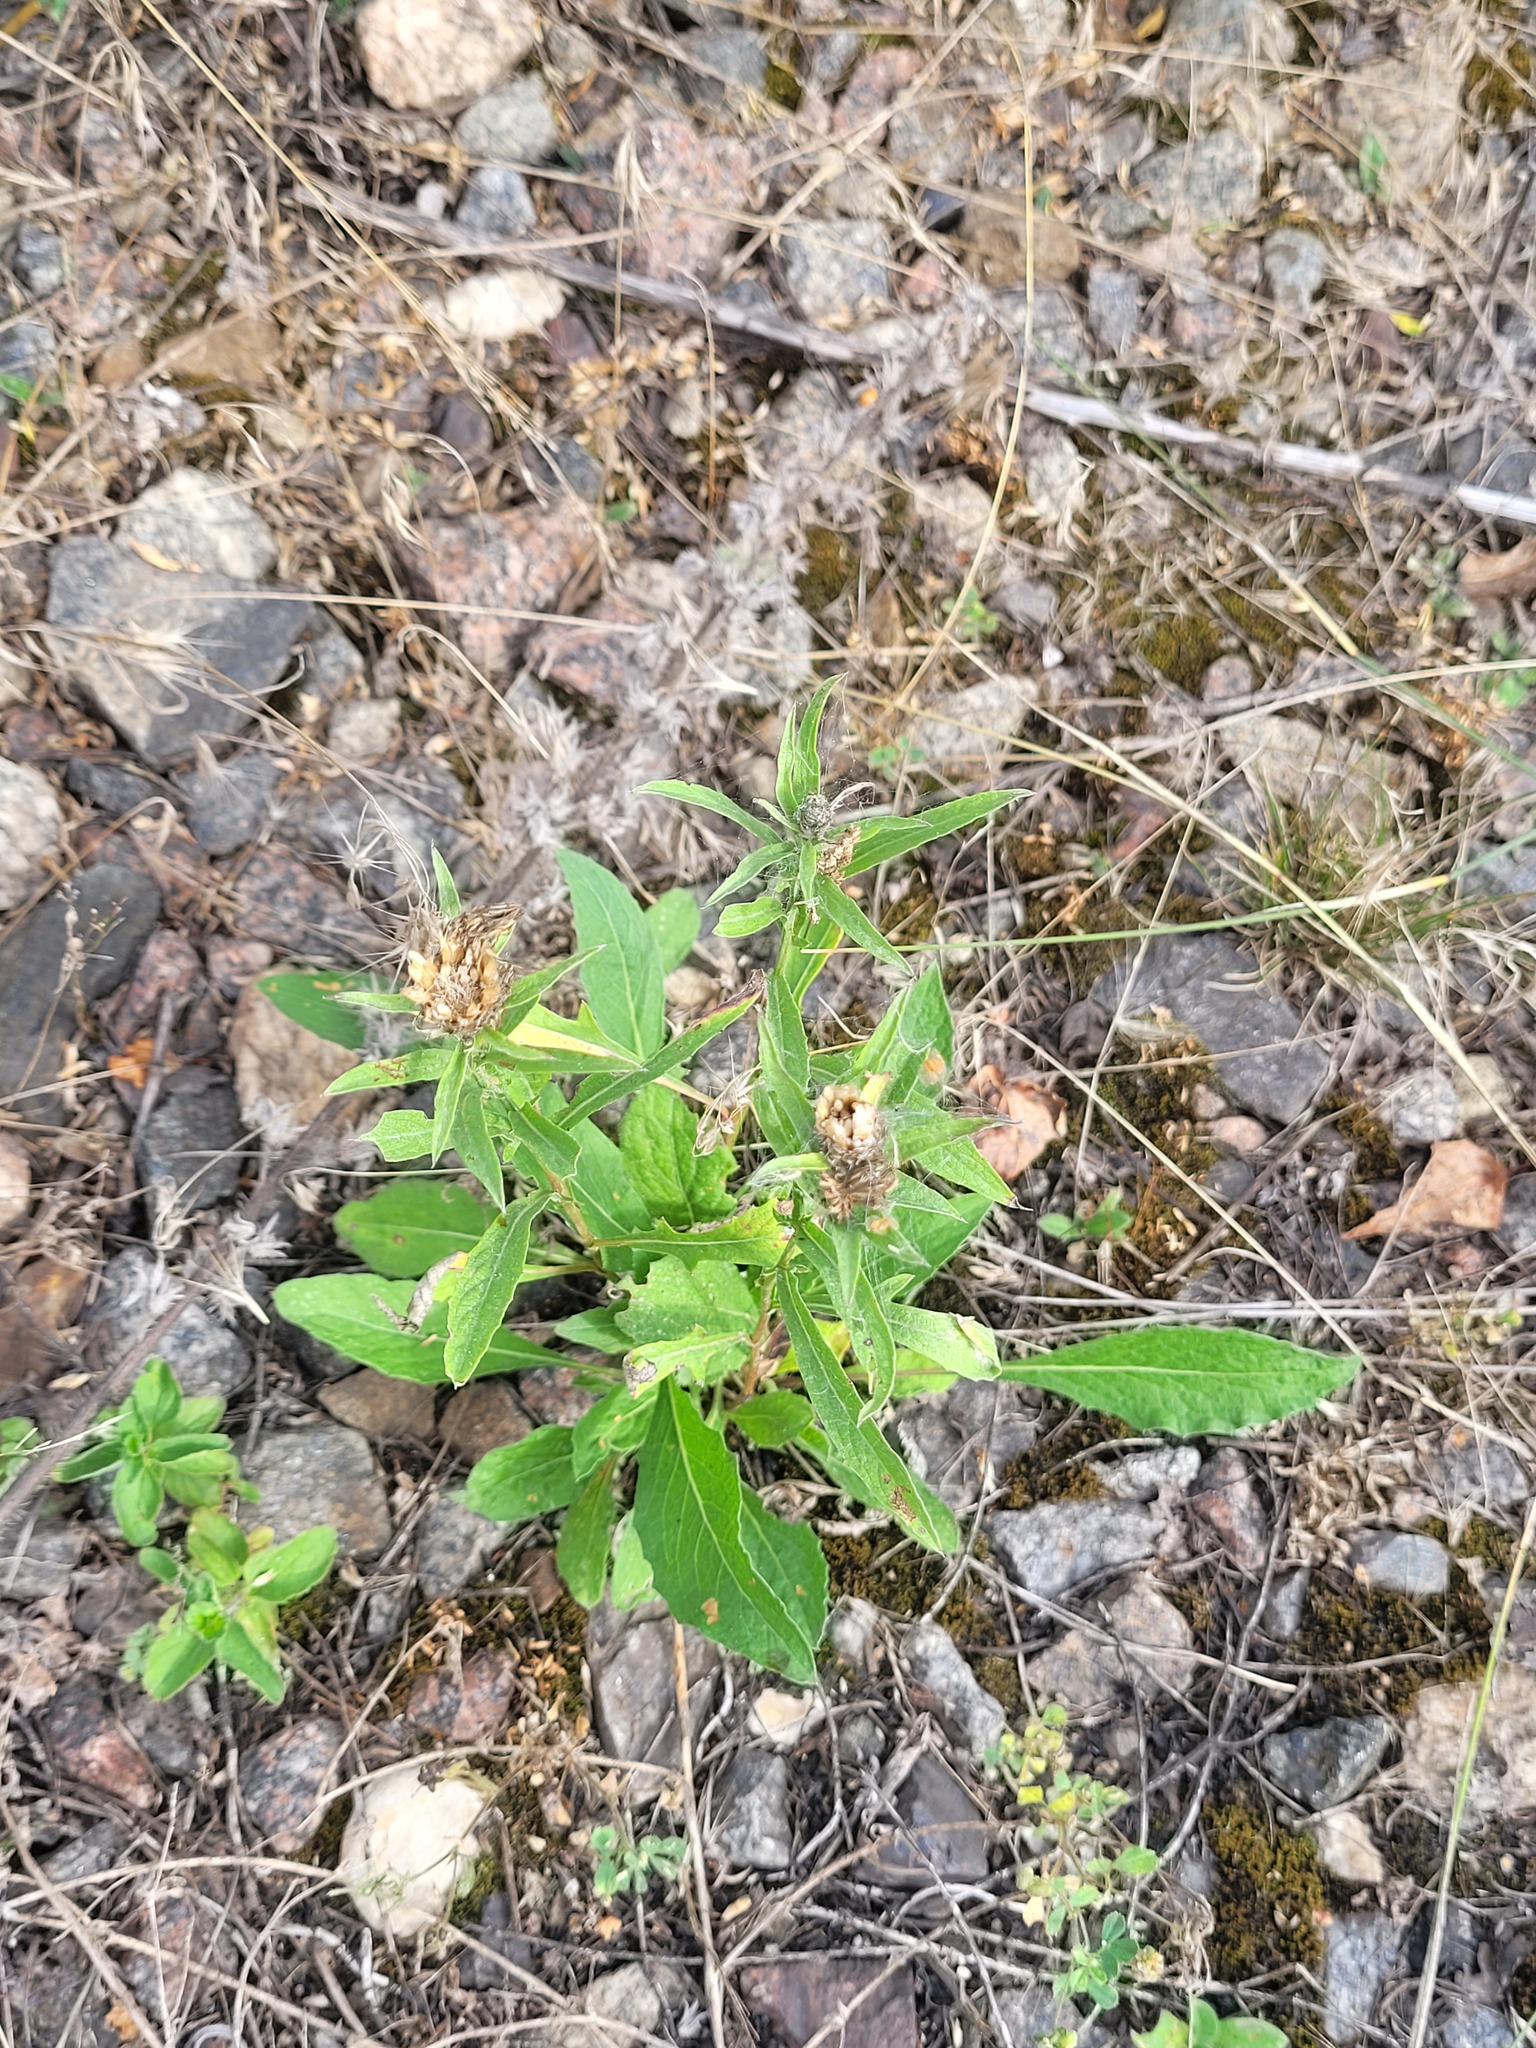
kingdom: Plantae
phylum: Tracheophyta
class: Magnoliopsida
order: Asterales
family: Asteraceae
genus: Centaurea
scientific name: Centaurea jacea
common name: Brown knapweed
